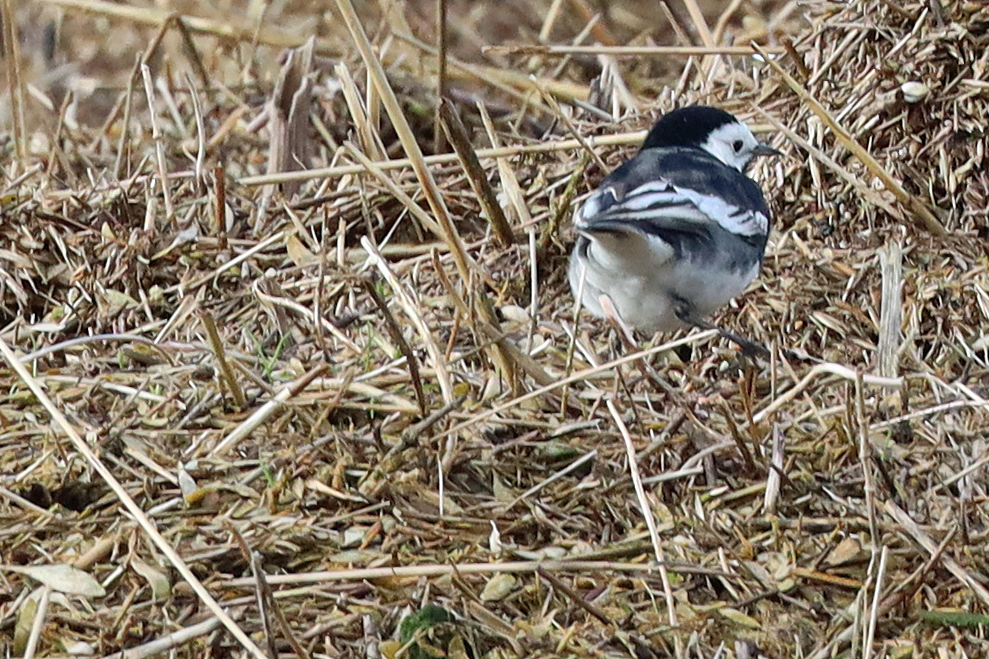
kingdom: Animalia
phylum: Chordata
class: Aves
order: Passeriformes
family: Motacillidae
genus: Motacilla
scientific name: Motacilla alba
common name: White wagtail
